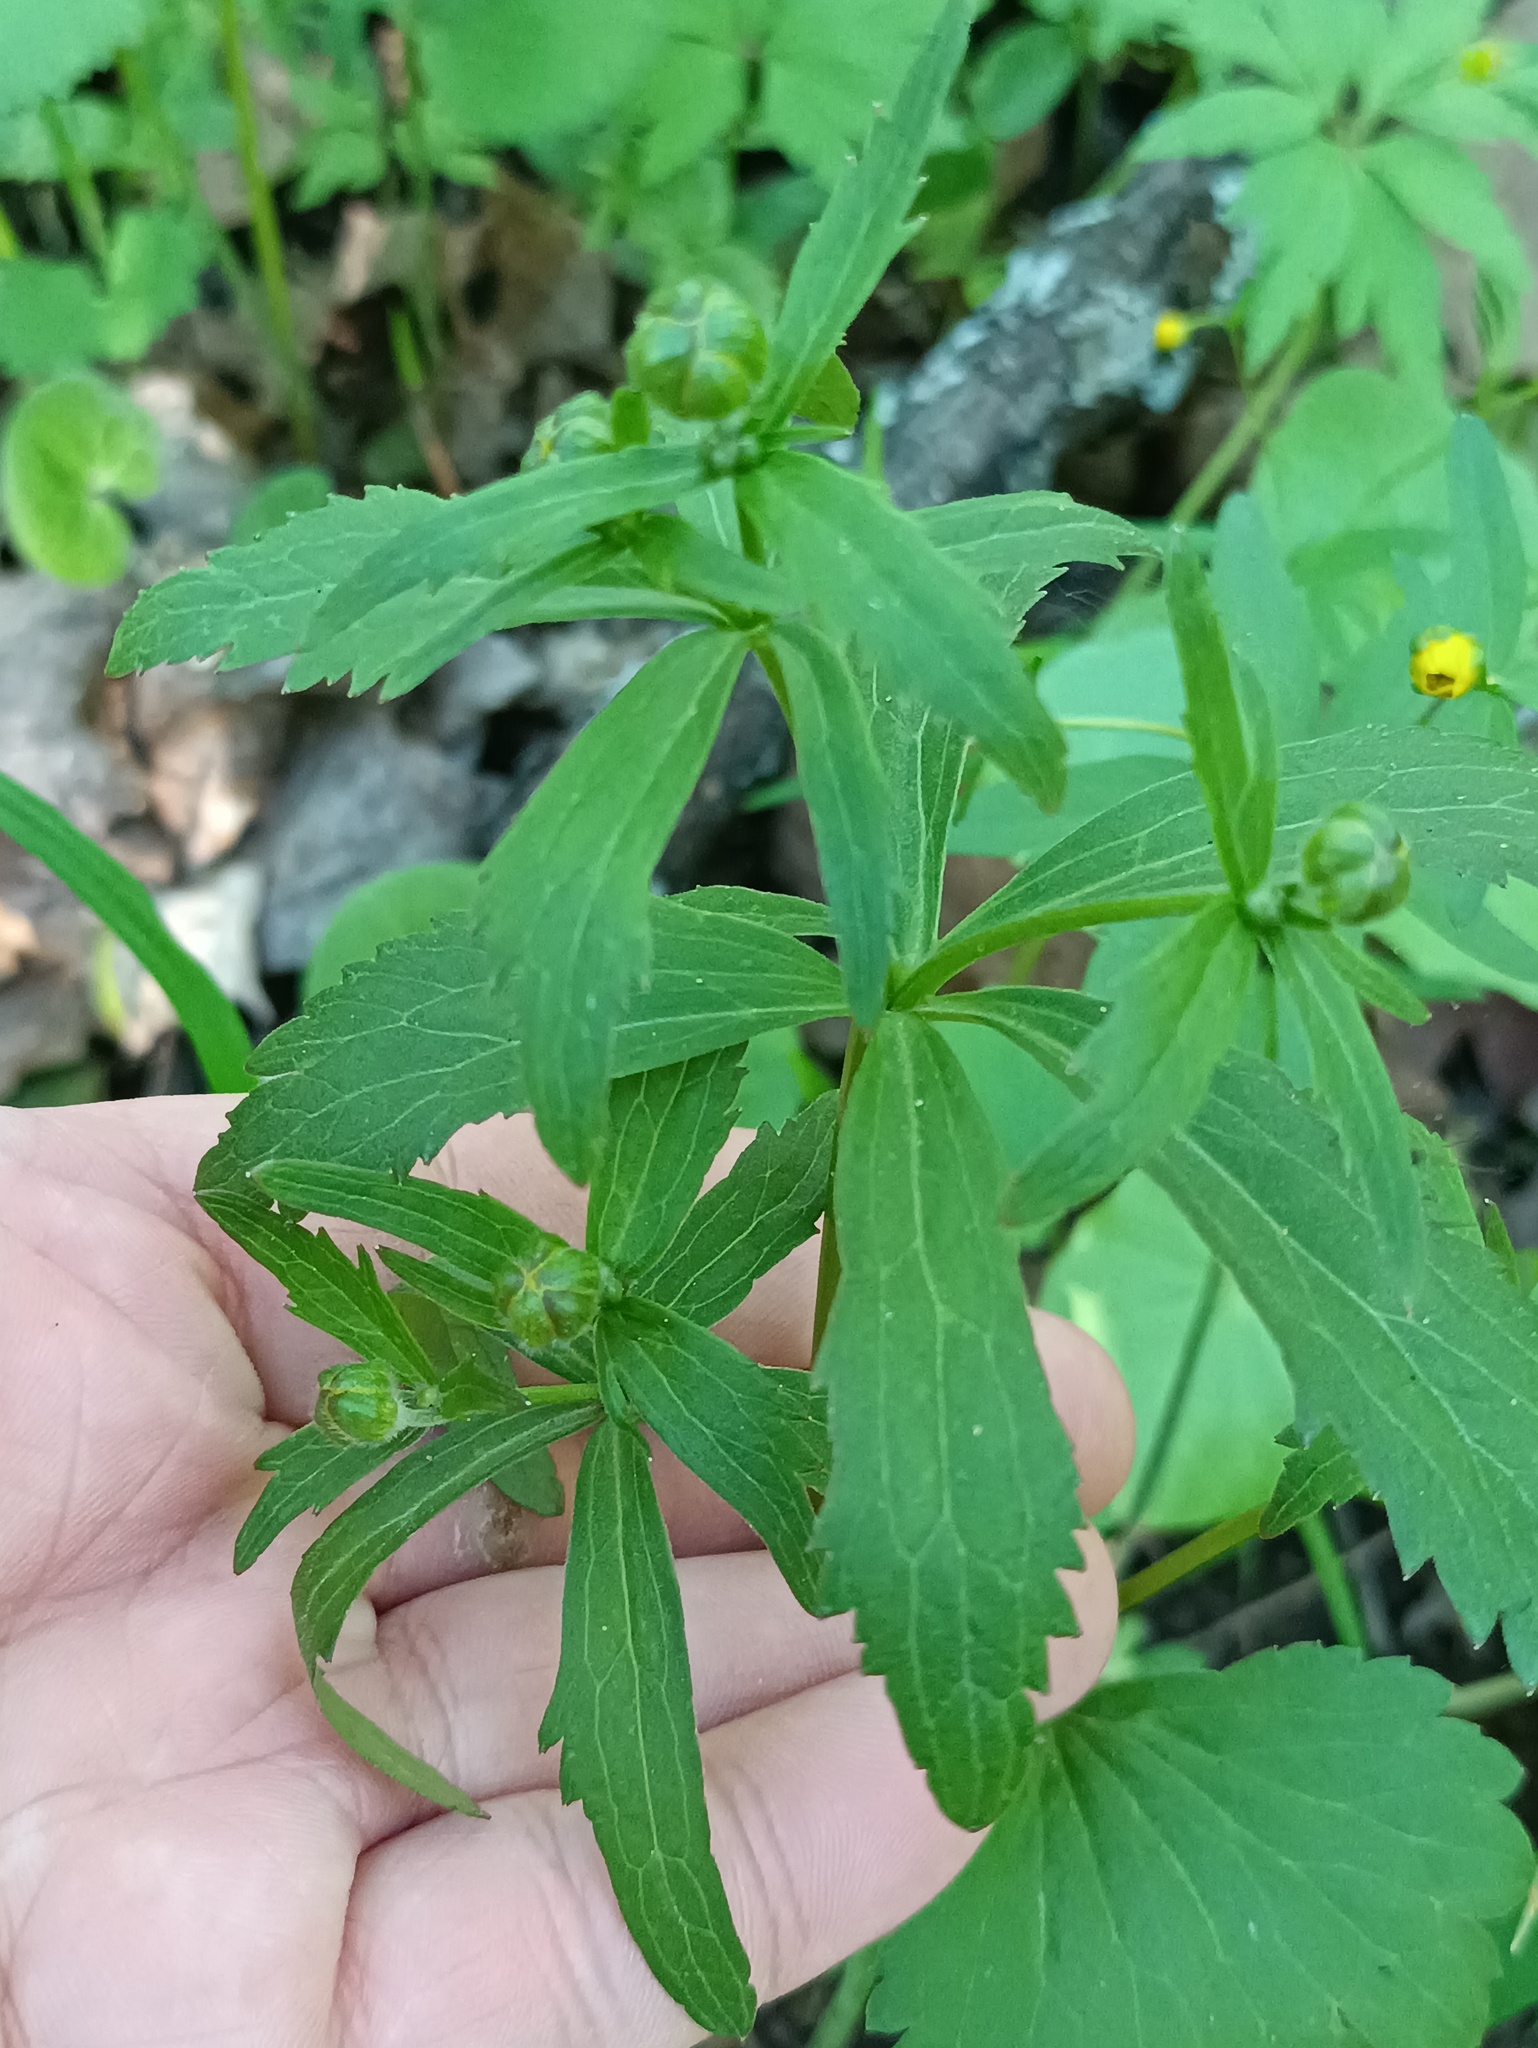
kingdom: Plantae
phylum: Tracheophyta
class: Magnoliopsida
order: Ranunculales
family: Ranunculaceae
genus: Ranunculus
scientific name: Ranunculus cassubicus
